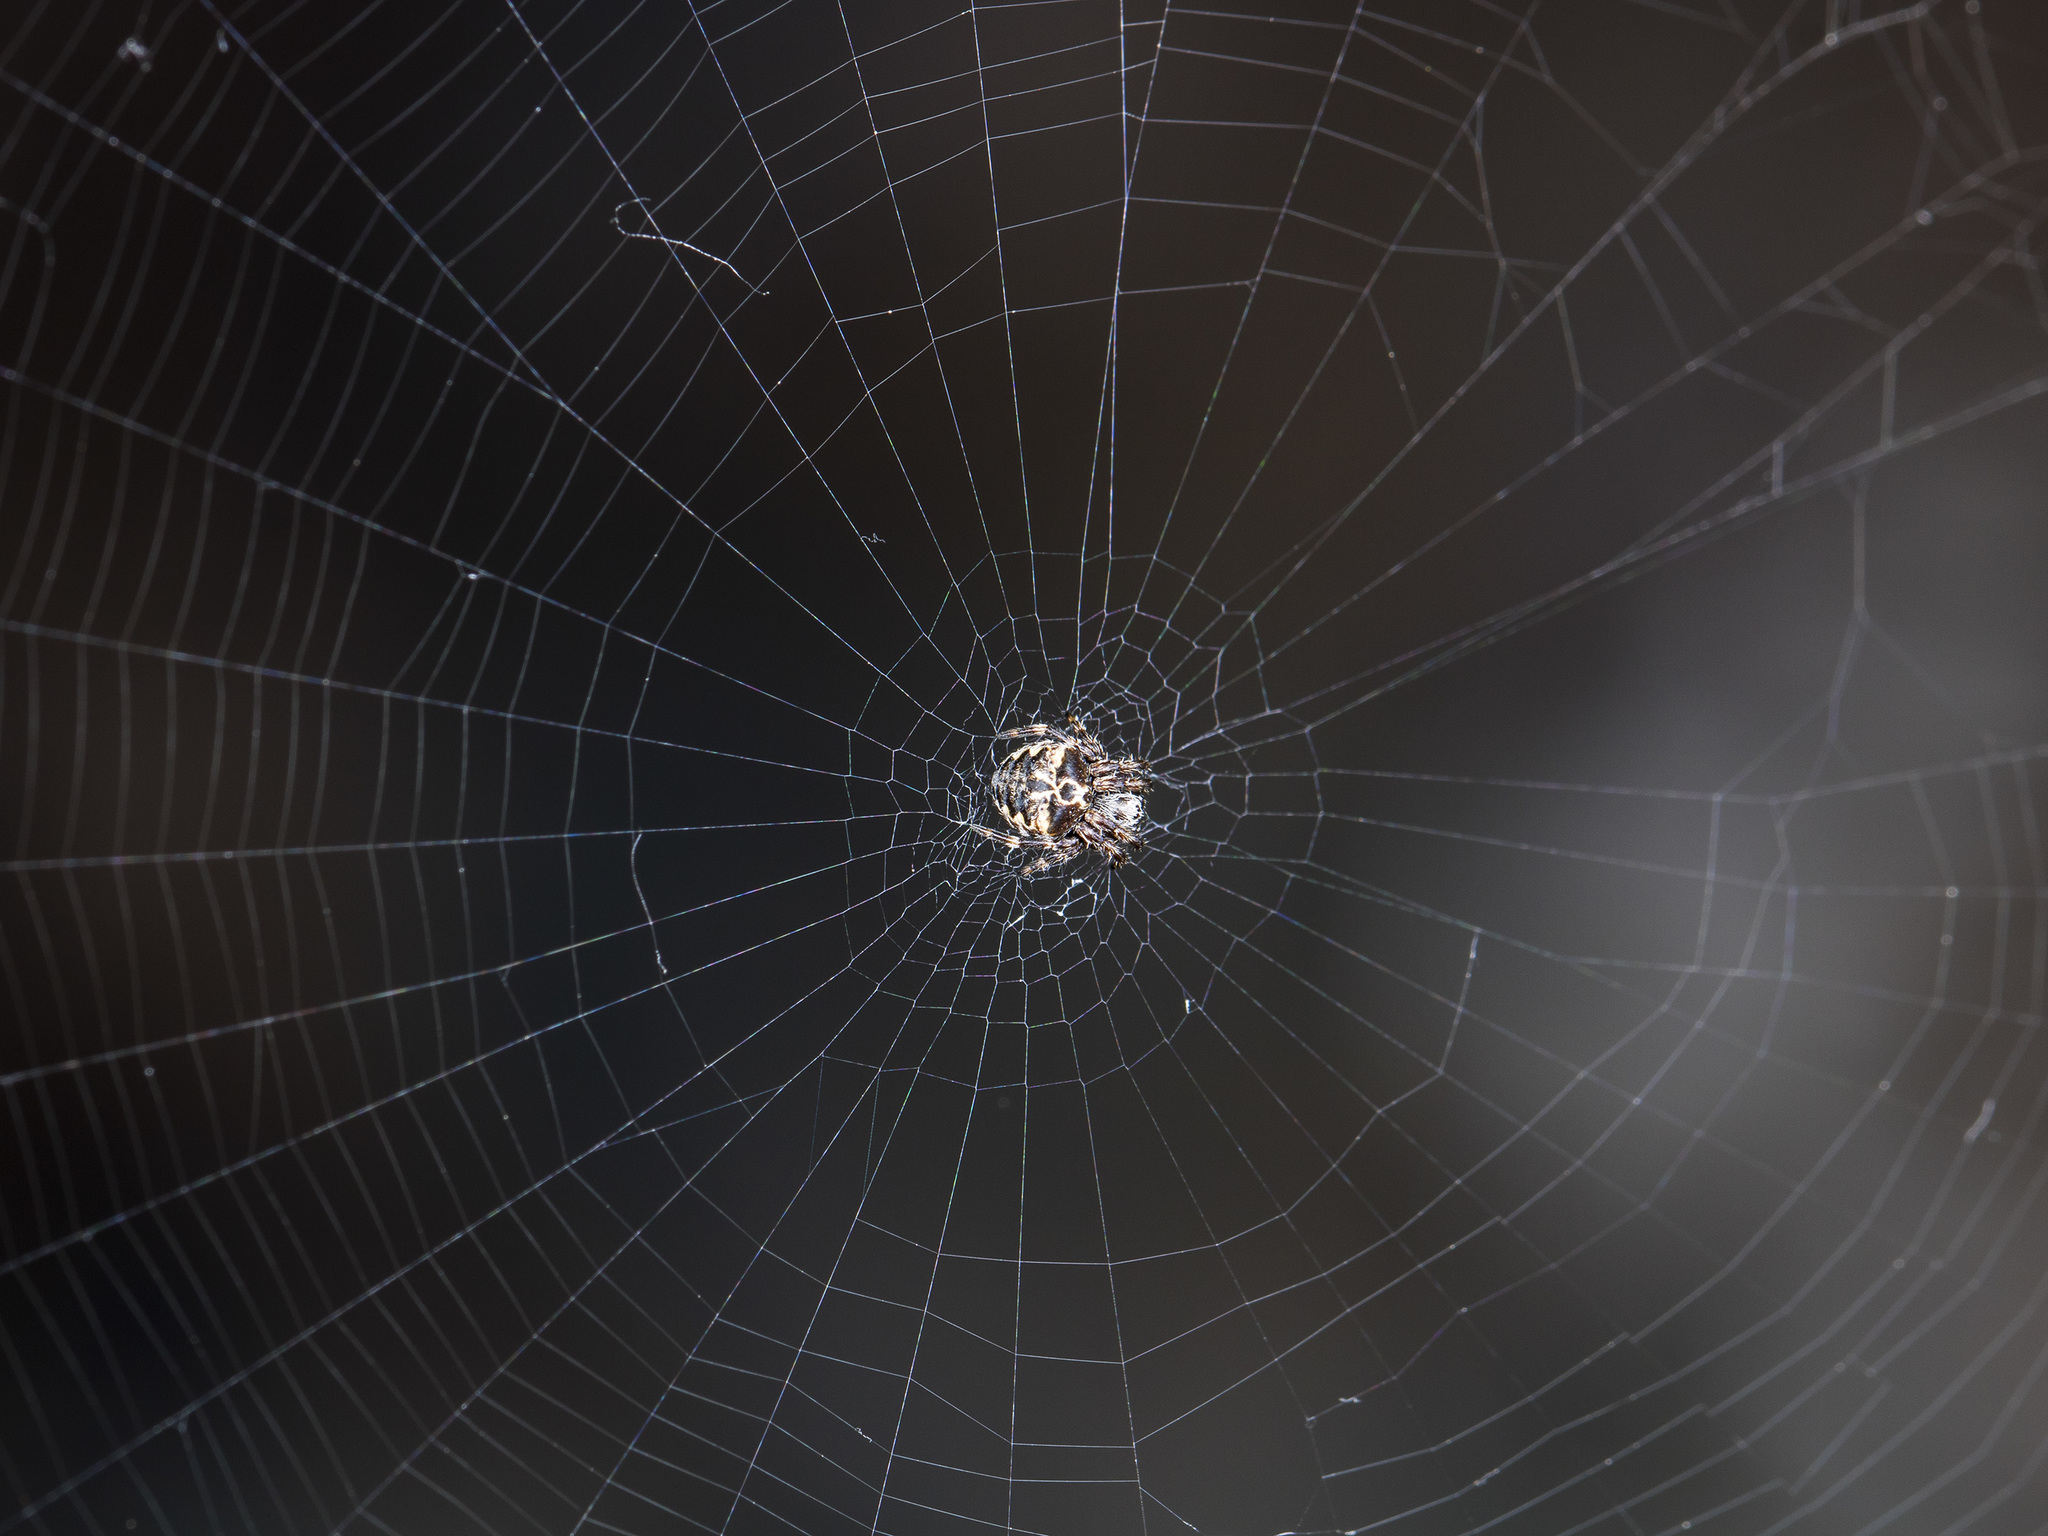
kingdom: Animalia
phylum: Arthropoda
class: Arachnida
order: Araneae
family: Araneidae
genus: Araneus
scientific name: Araneus grossus
